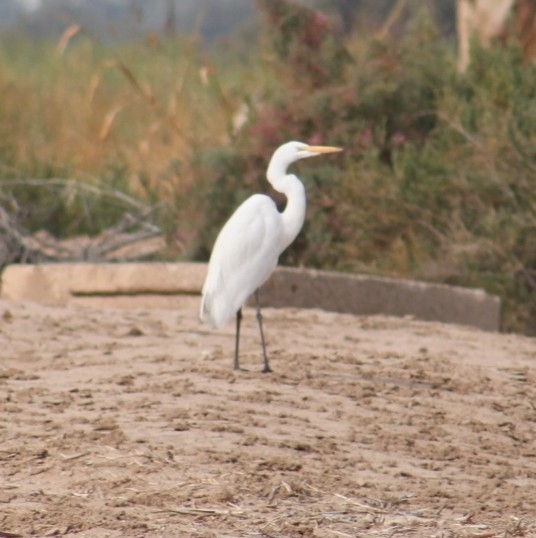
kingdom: Animalia
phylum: Chordata
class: Aves
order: Pelecaniformes
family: Ardeidae
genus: Ardea
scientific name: Ardea alba
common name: Great egret
